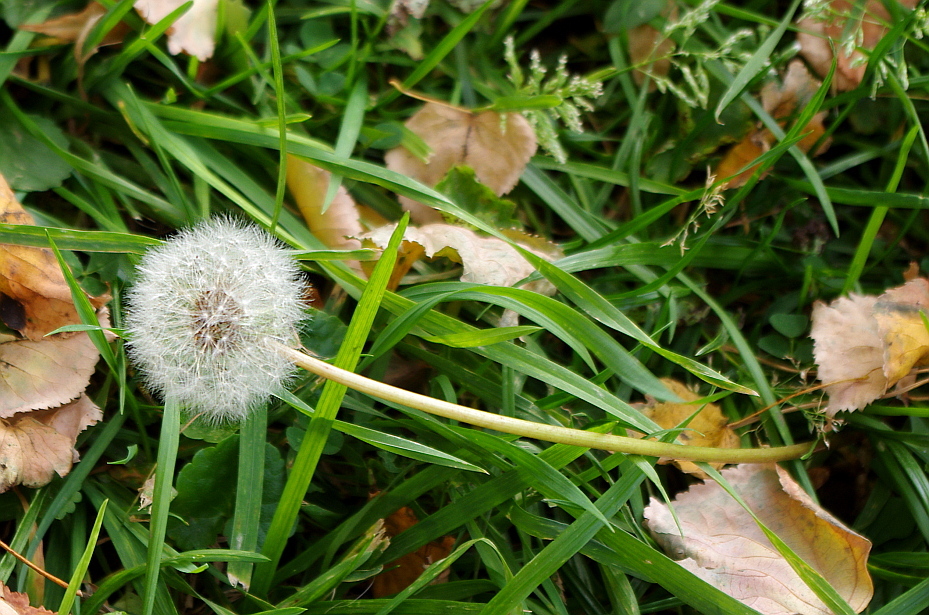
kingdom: Plantae
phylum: Tracheophyta
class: Magnoliopsida
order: Asterales
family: Asteraceae
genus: Taraxacum
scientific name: Taraxacum officinale
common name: Common dandelion
